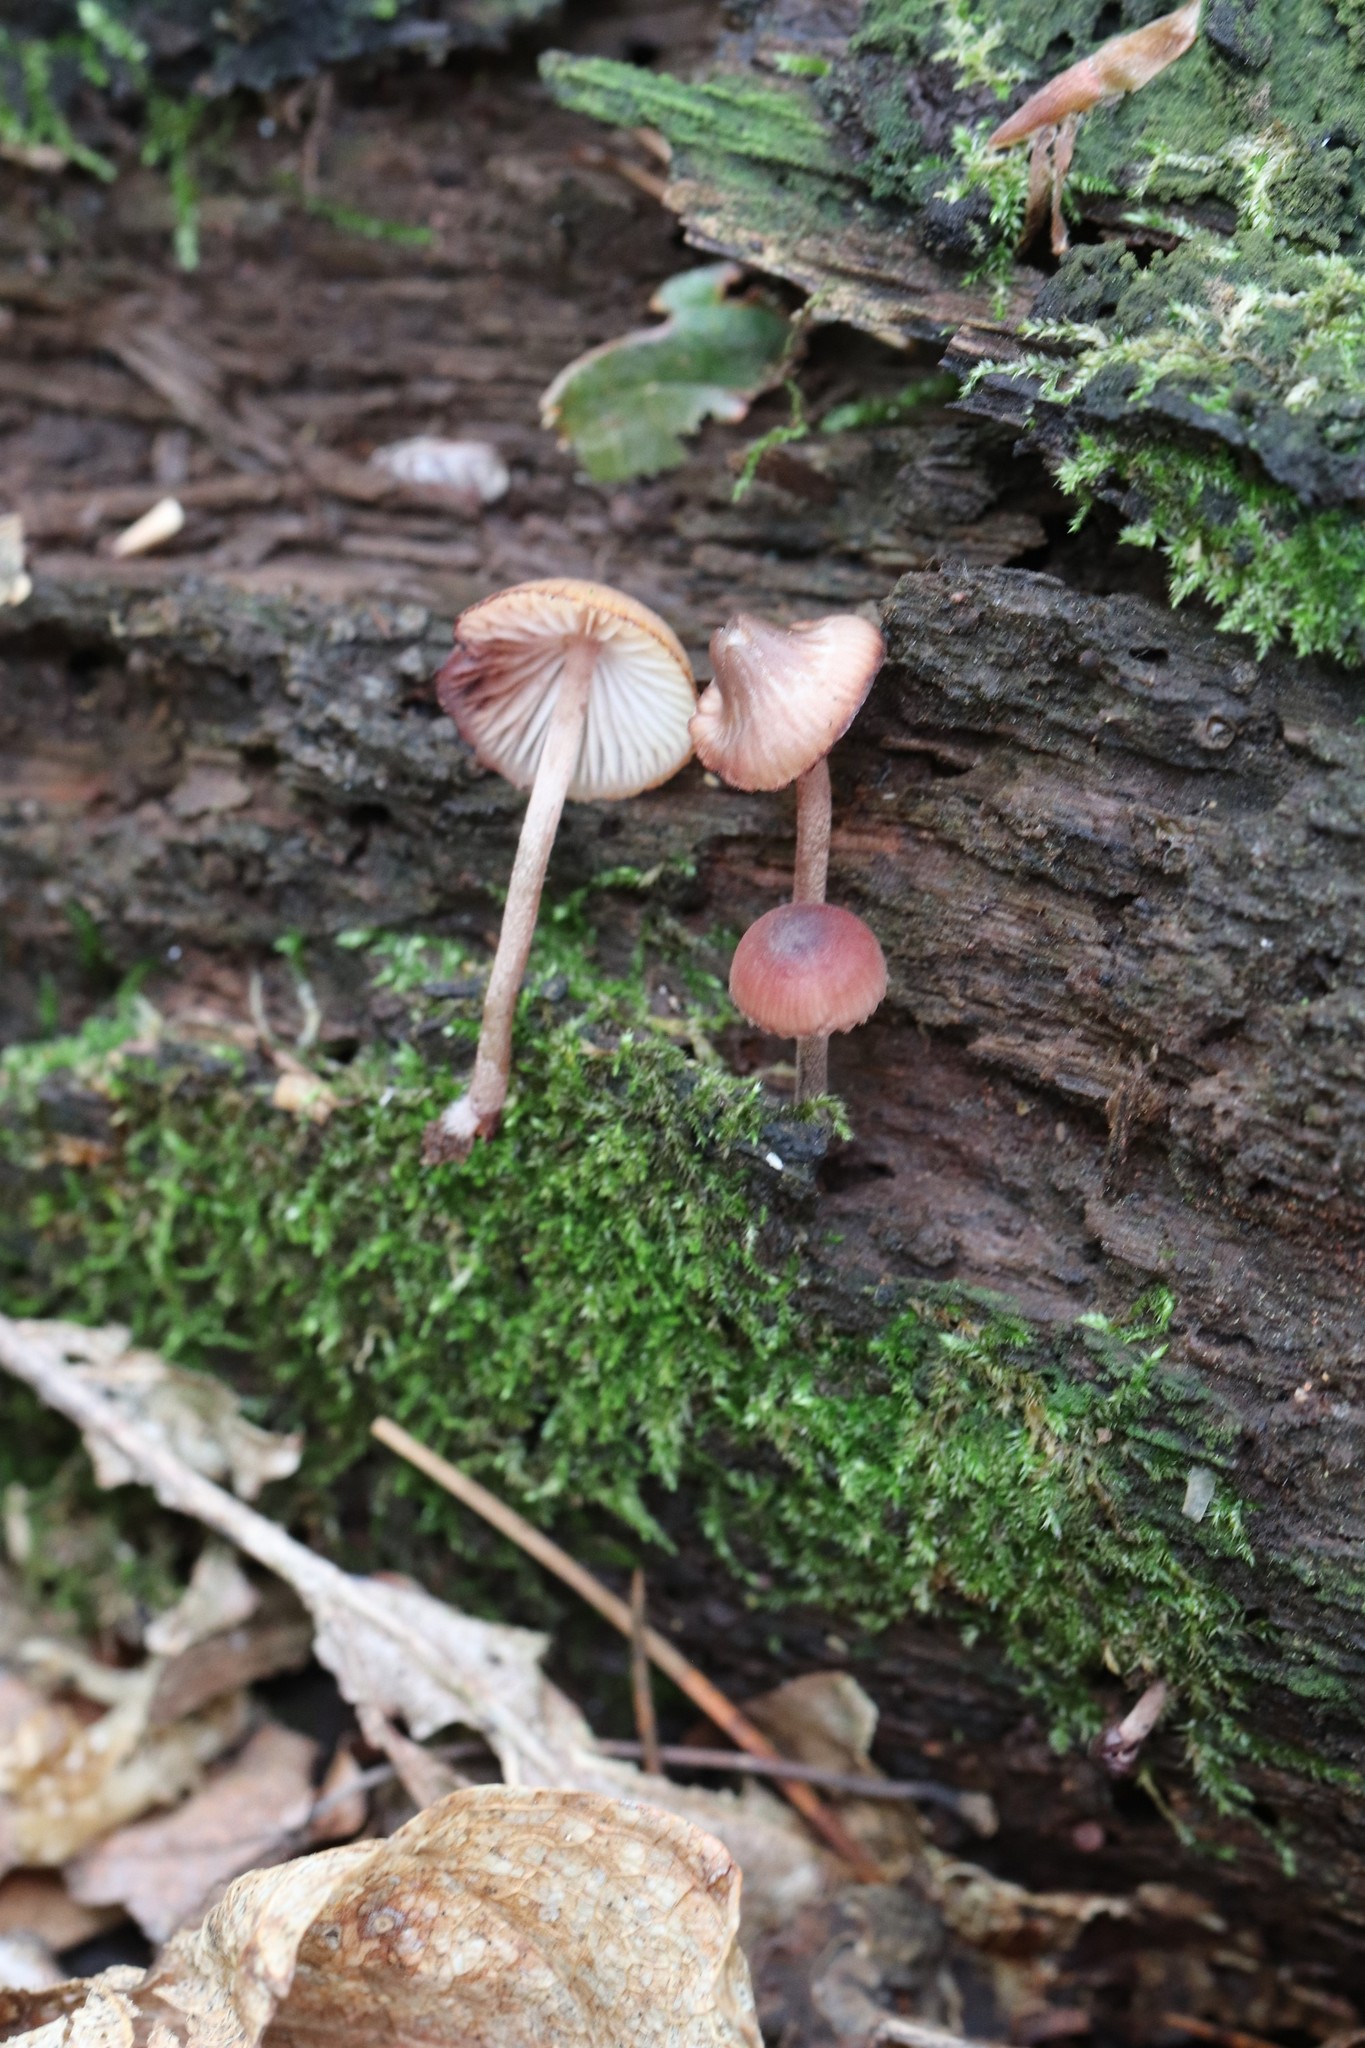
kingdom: Fungi
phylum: Basidiomycota
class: Agaricomycetes
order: Agaricales
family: Mycenaceae
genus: Mycena
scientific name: Mycena haematopus
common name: Burgundydrop bonnet
